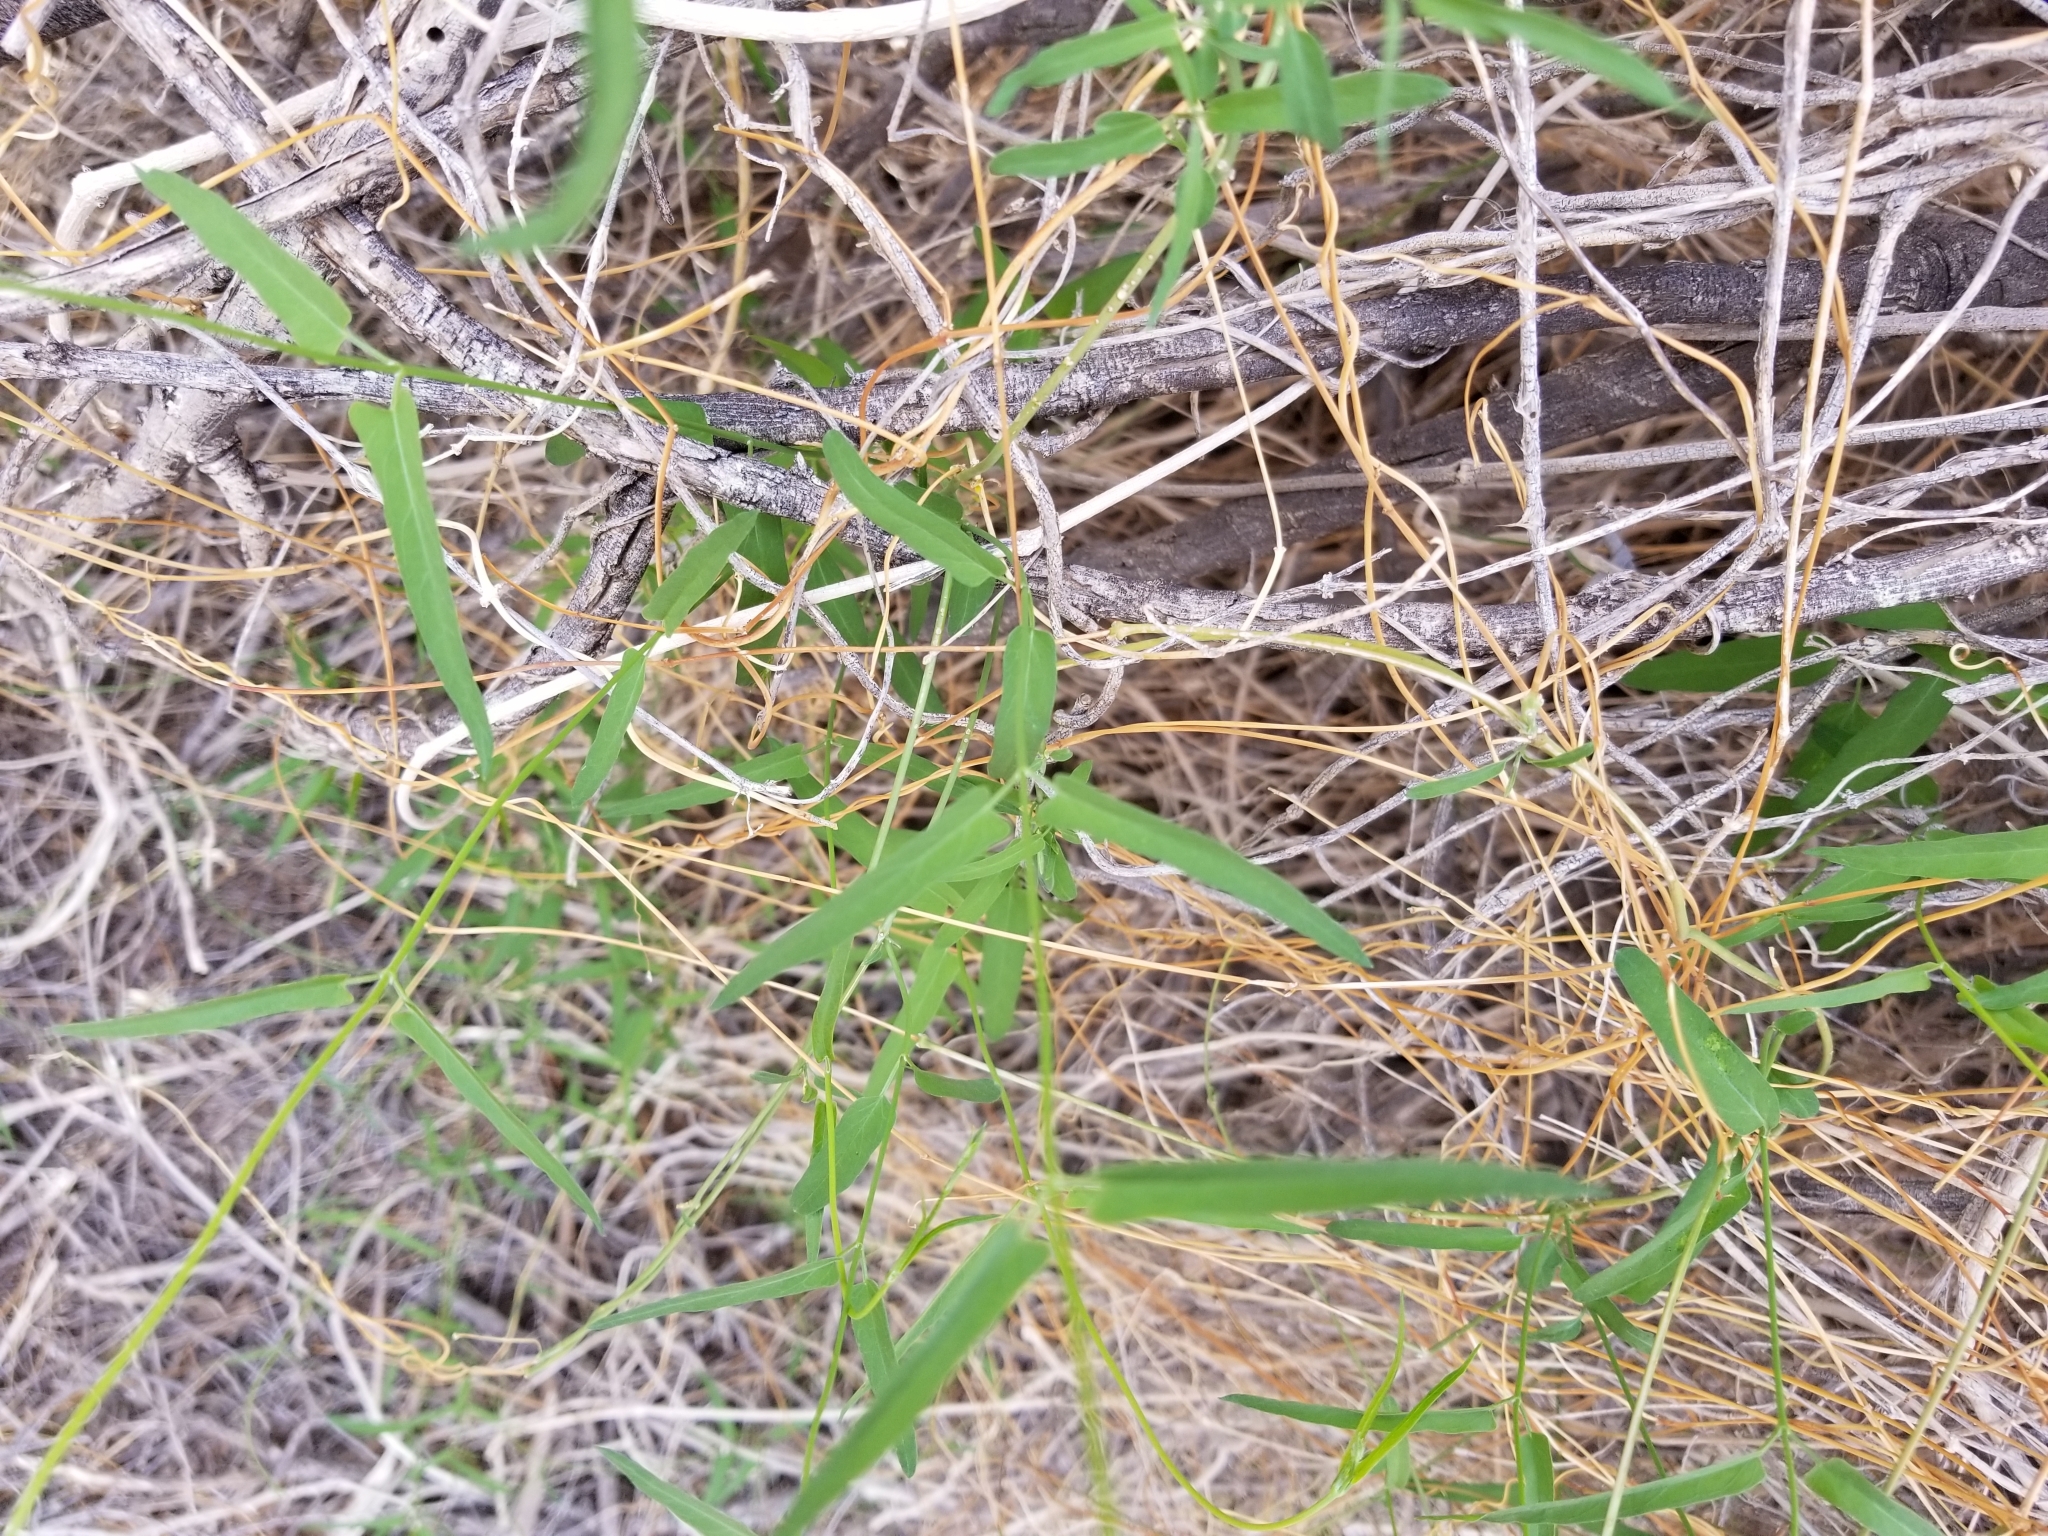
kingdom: Plantae
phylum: Tracheophyta
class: Magnoliopsida
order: Gentianales
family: Apocynaceae
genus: Funastrum
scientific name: Funastrum heterophyllum
